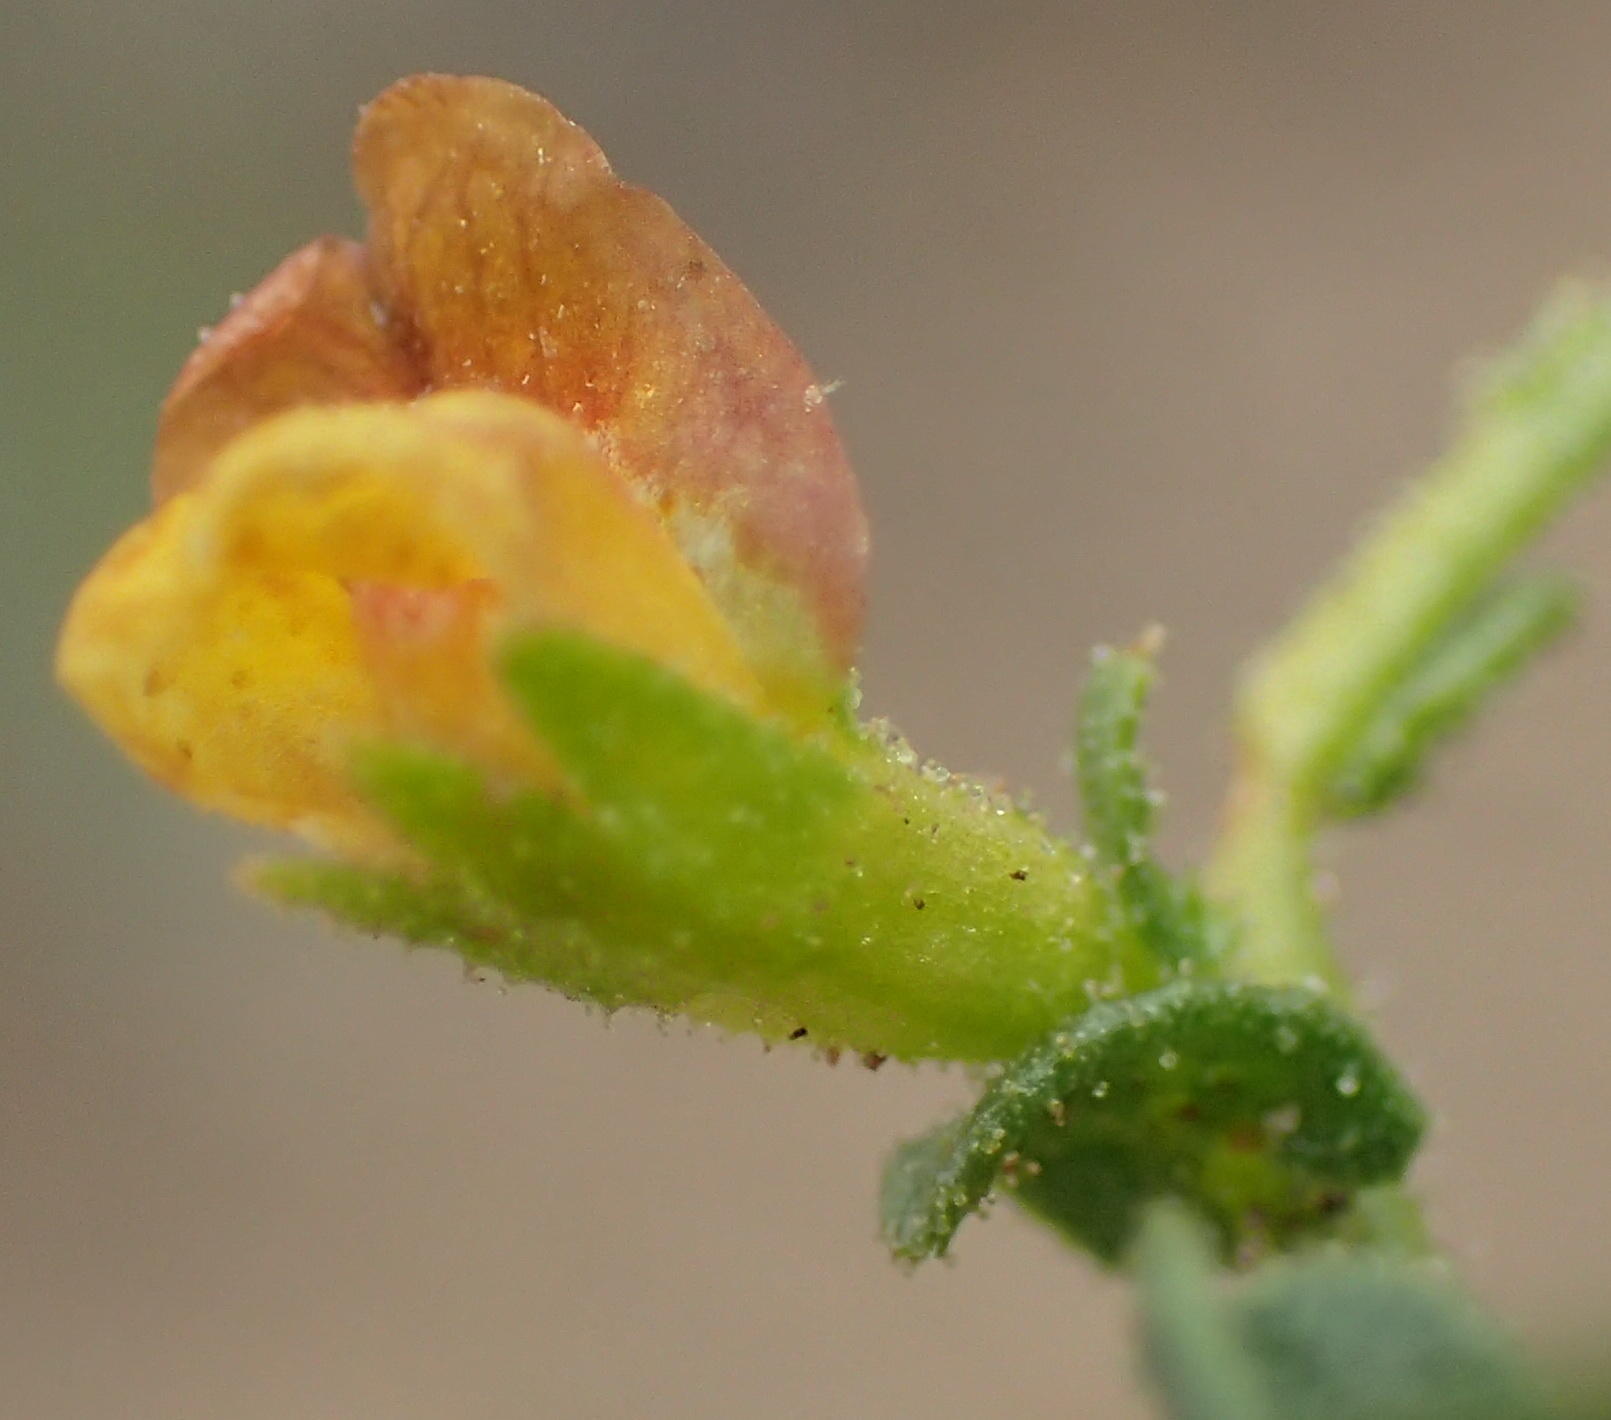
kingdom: Plantae
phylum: Tracheophyta
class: Magnoliopsida
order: Fabales
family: Fabaceae
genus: Melolobium
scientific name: Melolobium adenodes
